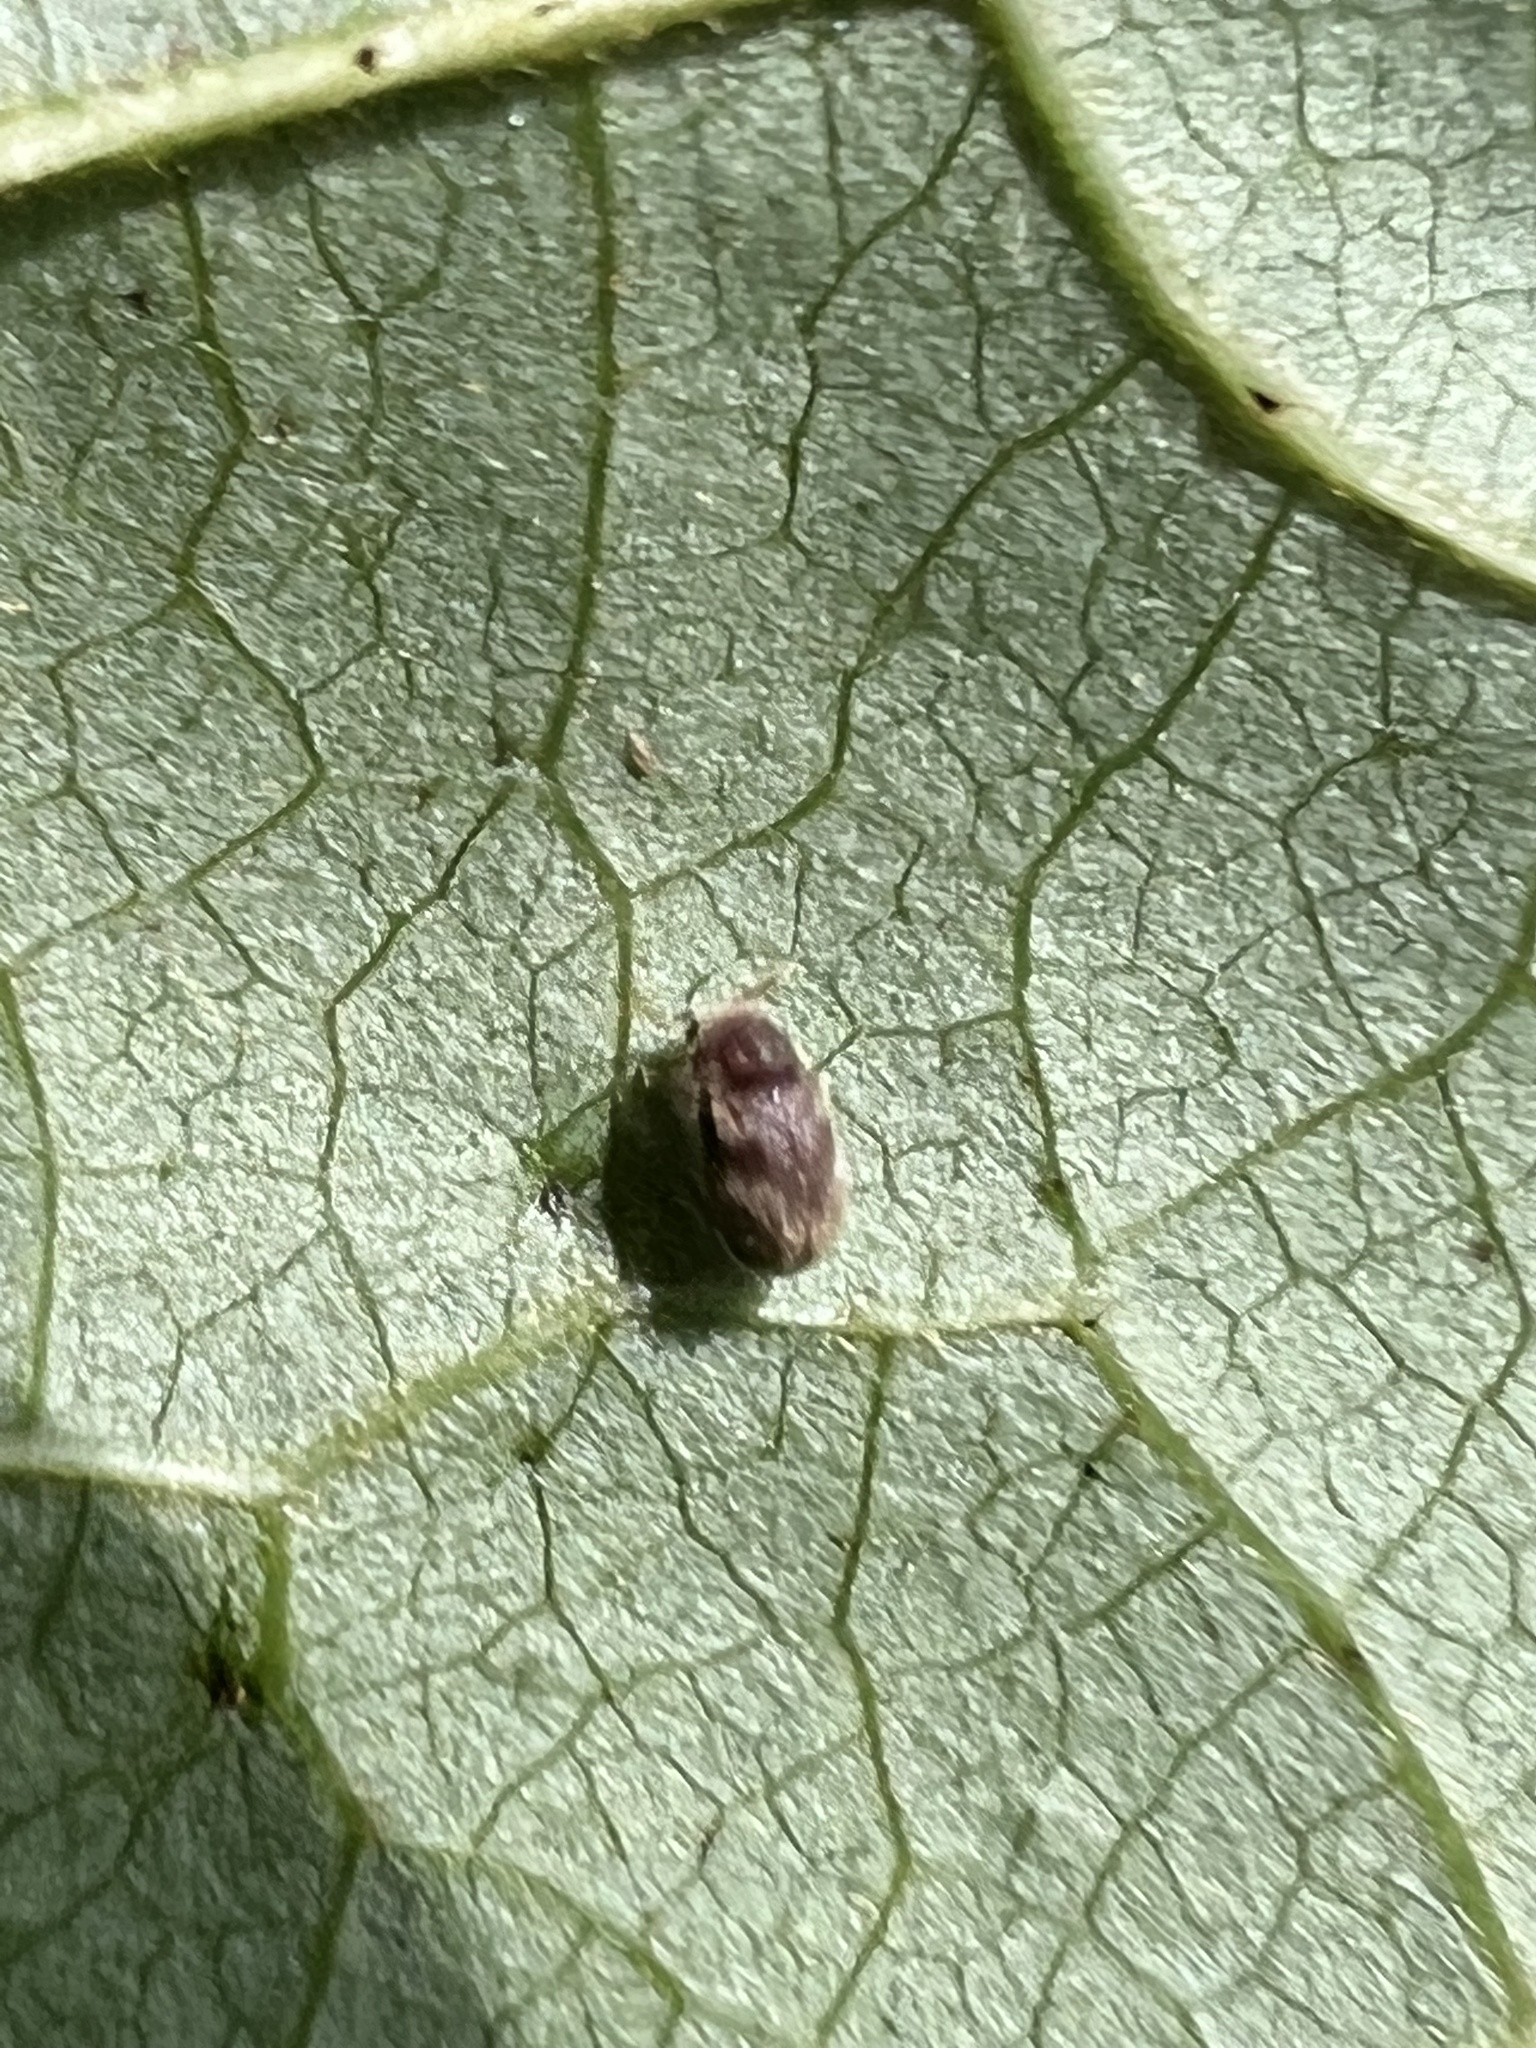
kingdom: Animalia
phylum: Arthropoda
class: Insecta
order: Coleoptera
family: Anobiidae
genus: Protheca
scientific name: Protheca hispida
